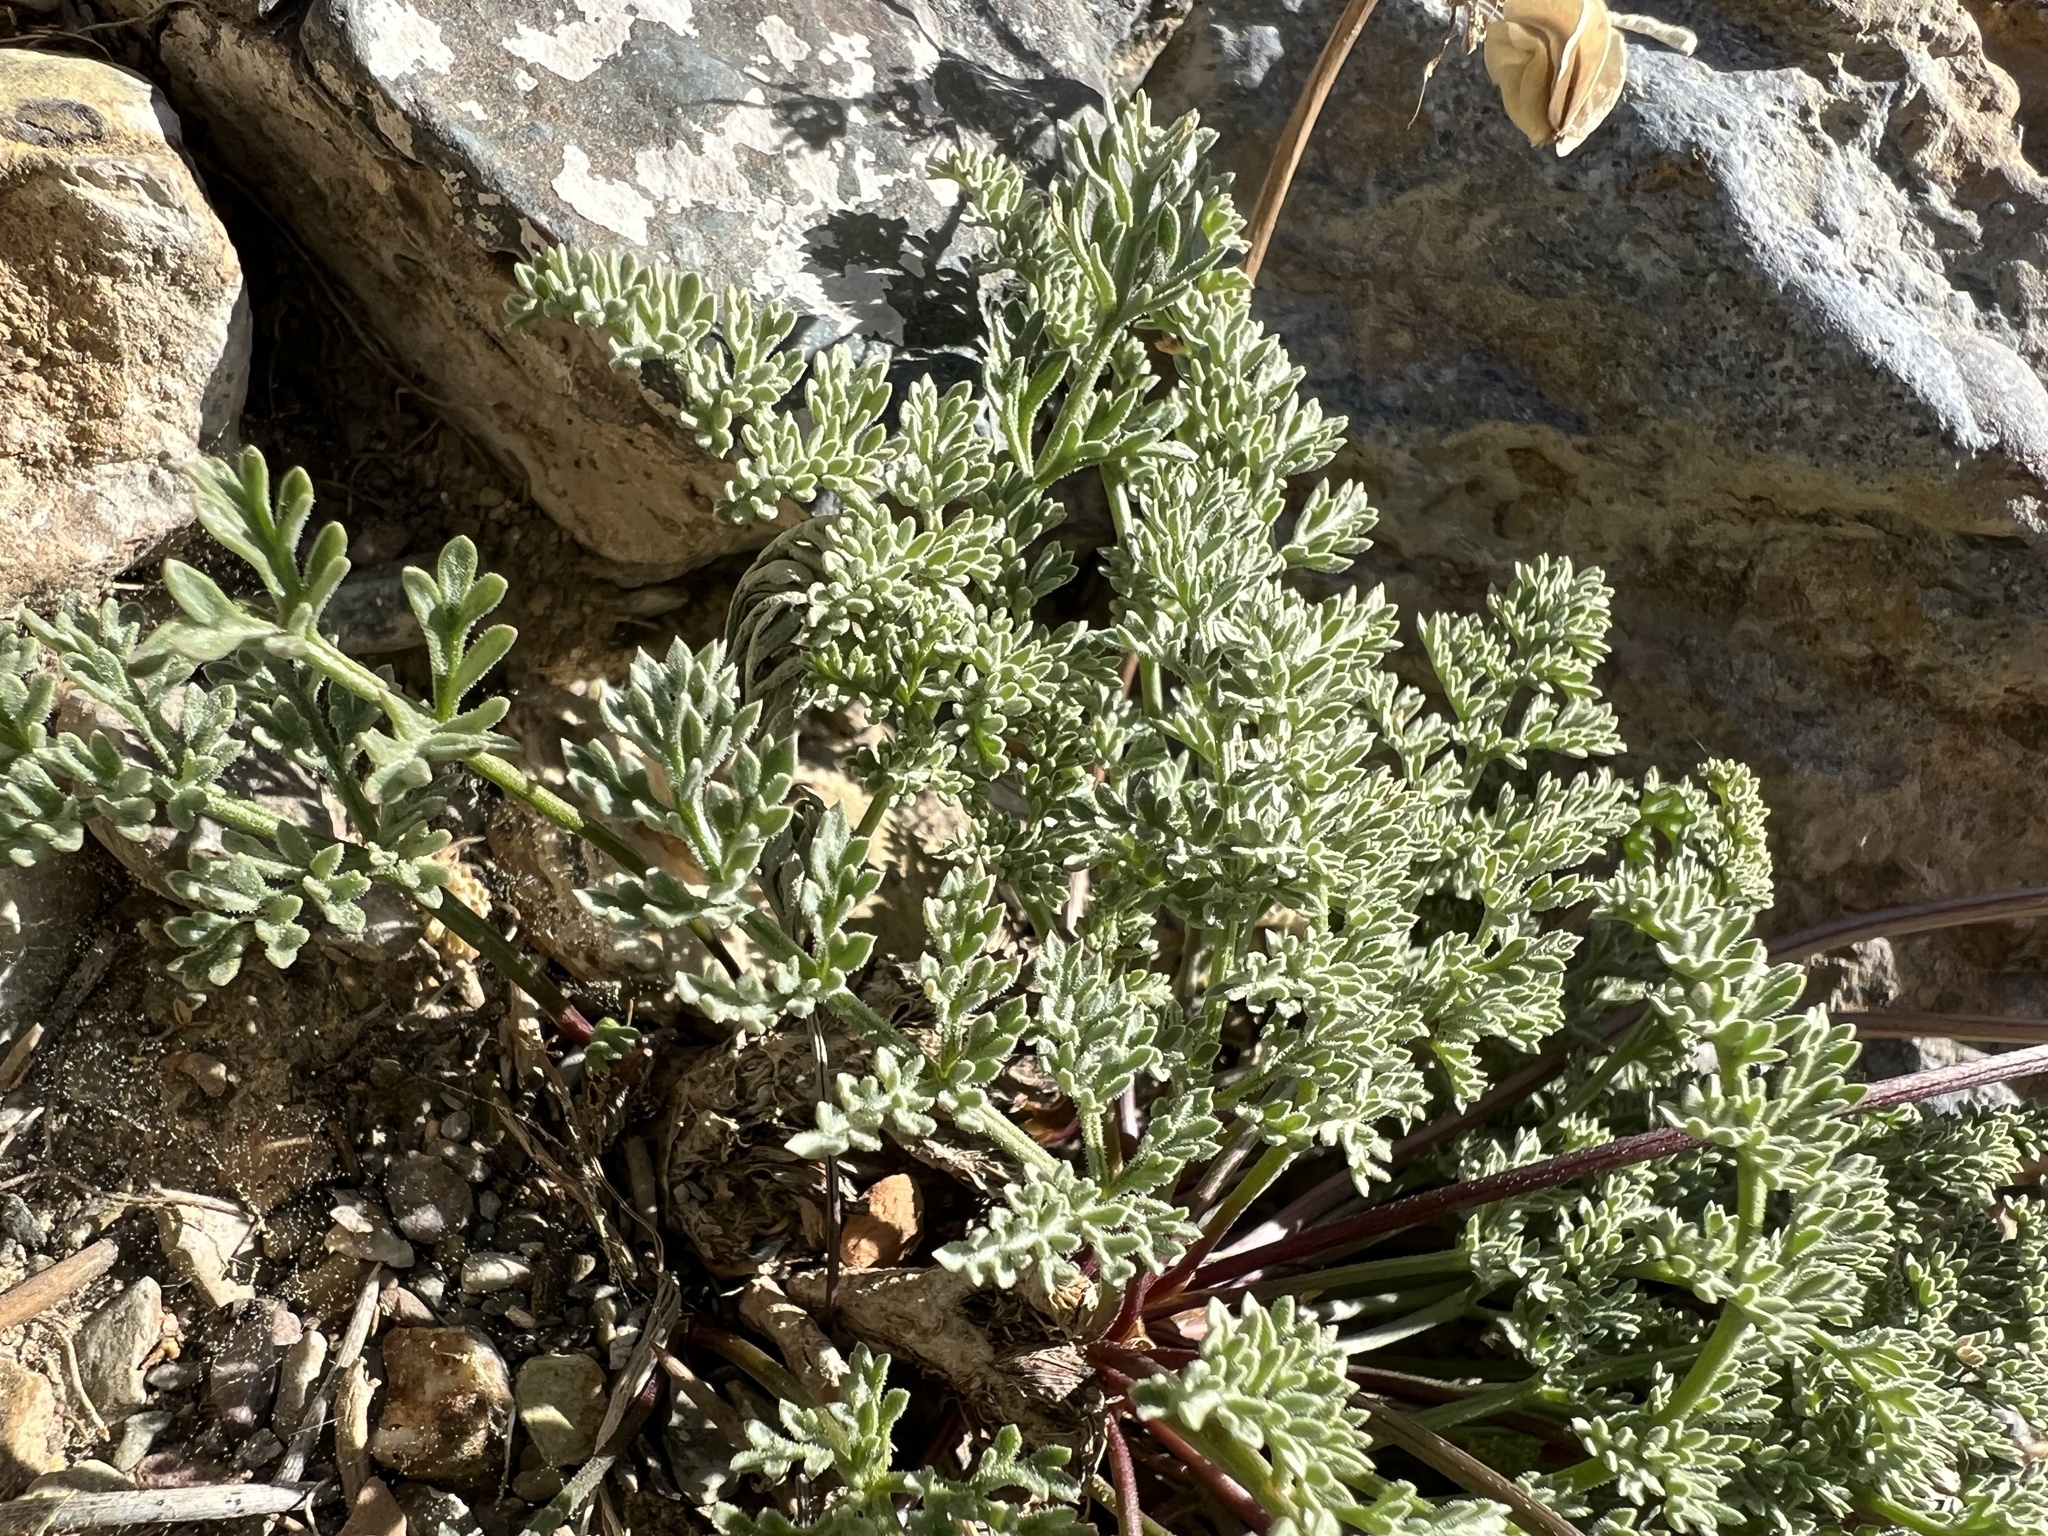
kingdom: Plantae
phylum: Tracheophyta
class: Magnoliopsida
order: Apiales
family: Apiaceae
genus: Aulospermum
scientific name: Aulospermum aboriginum
